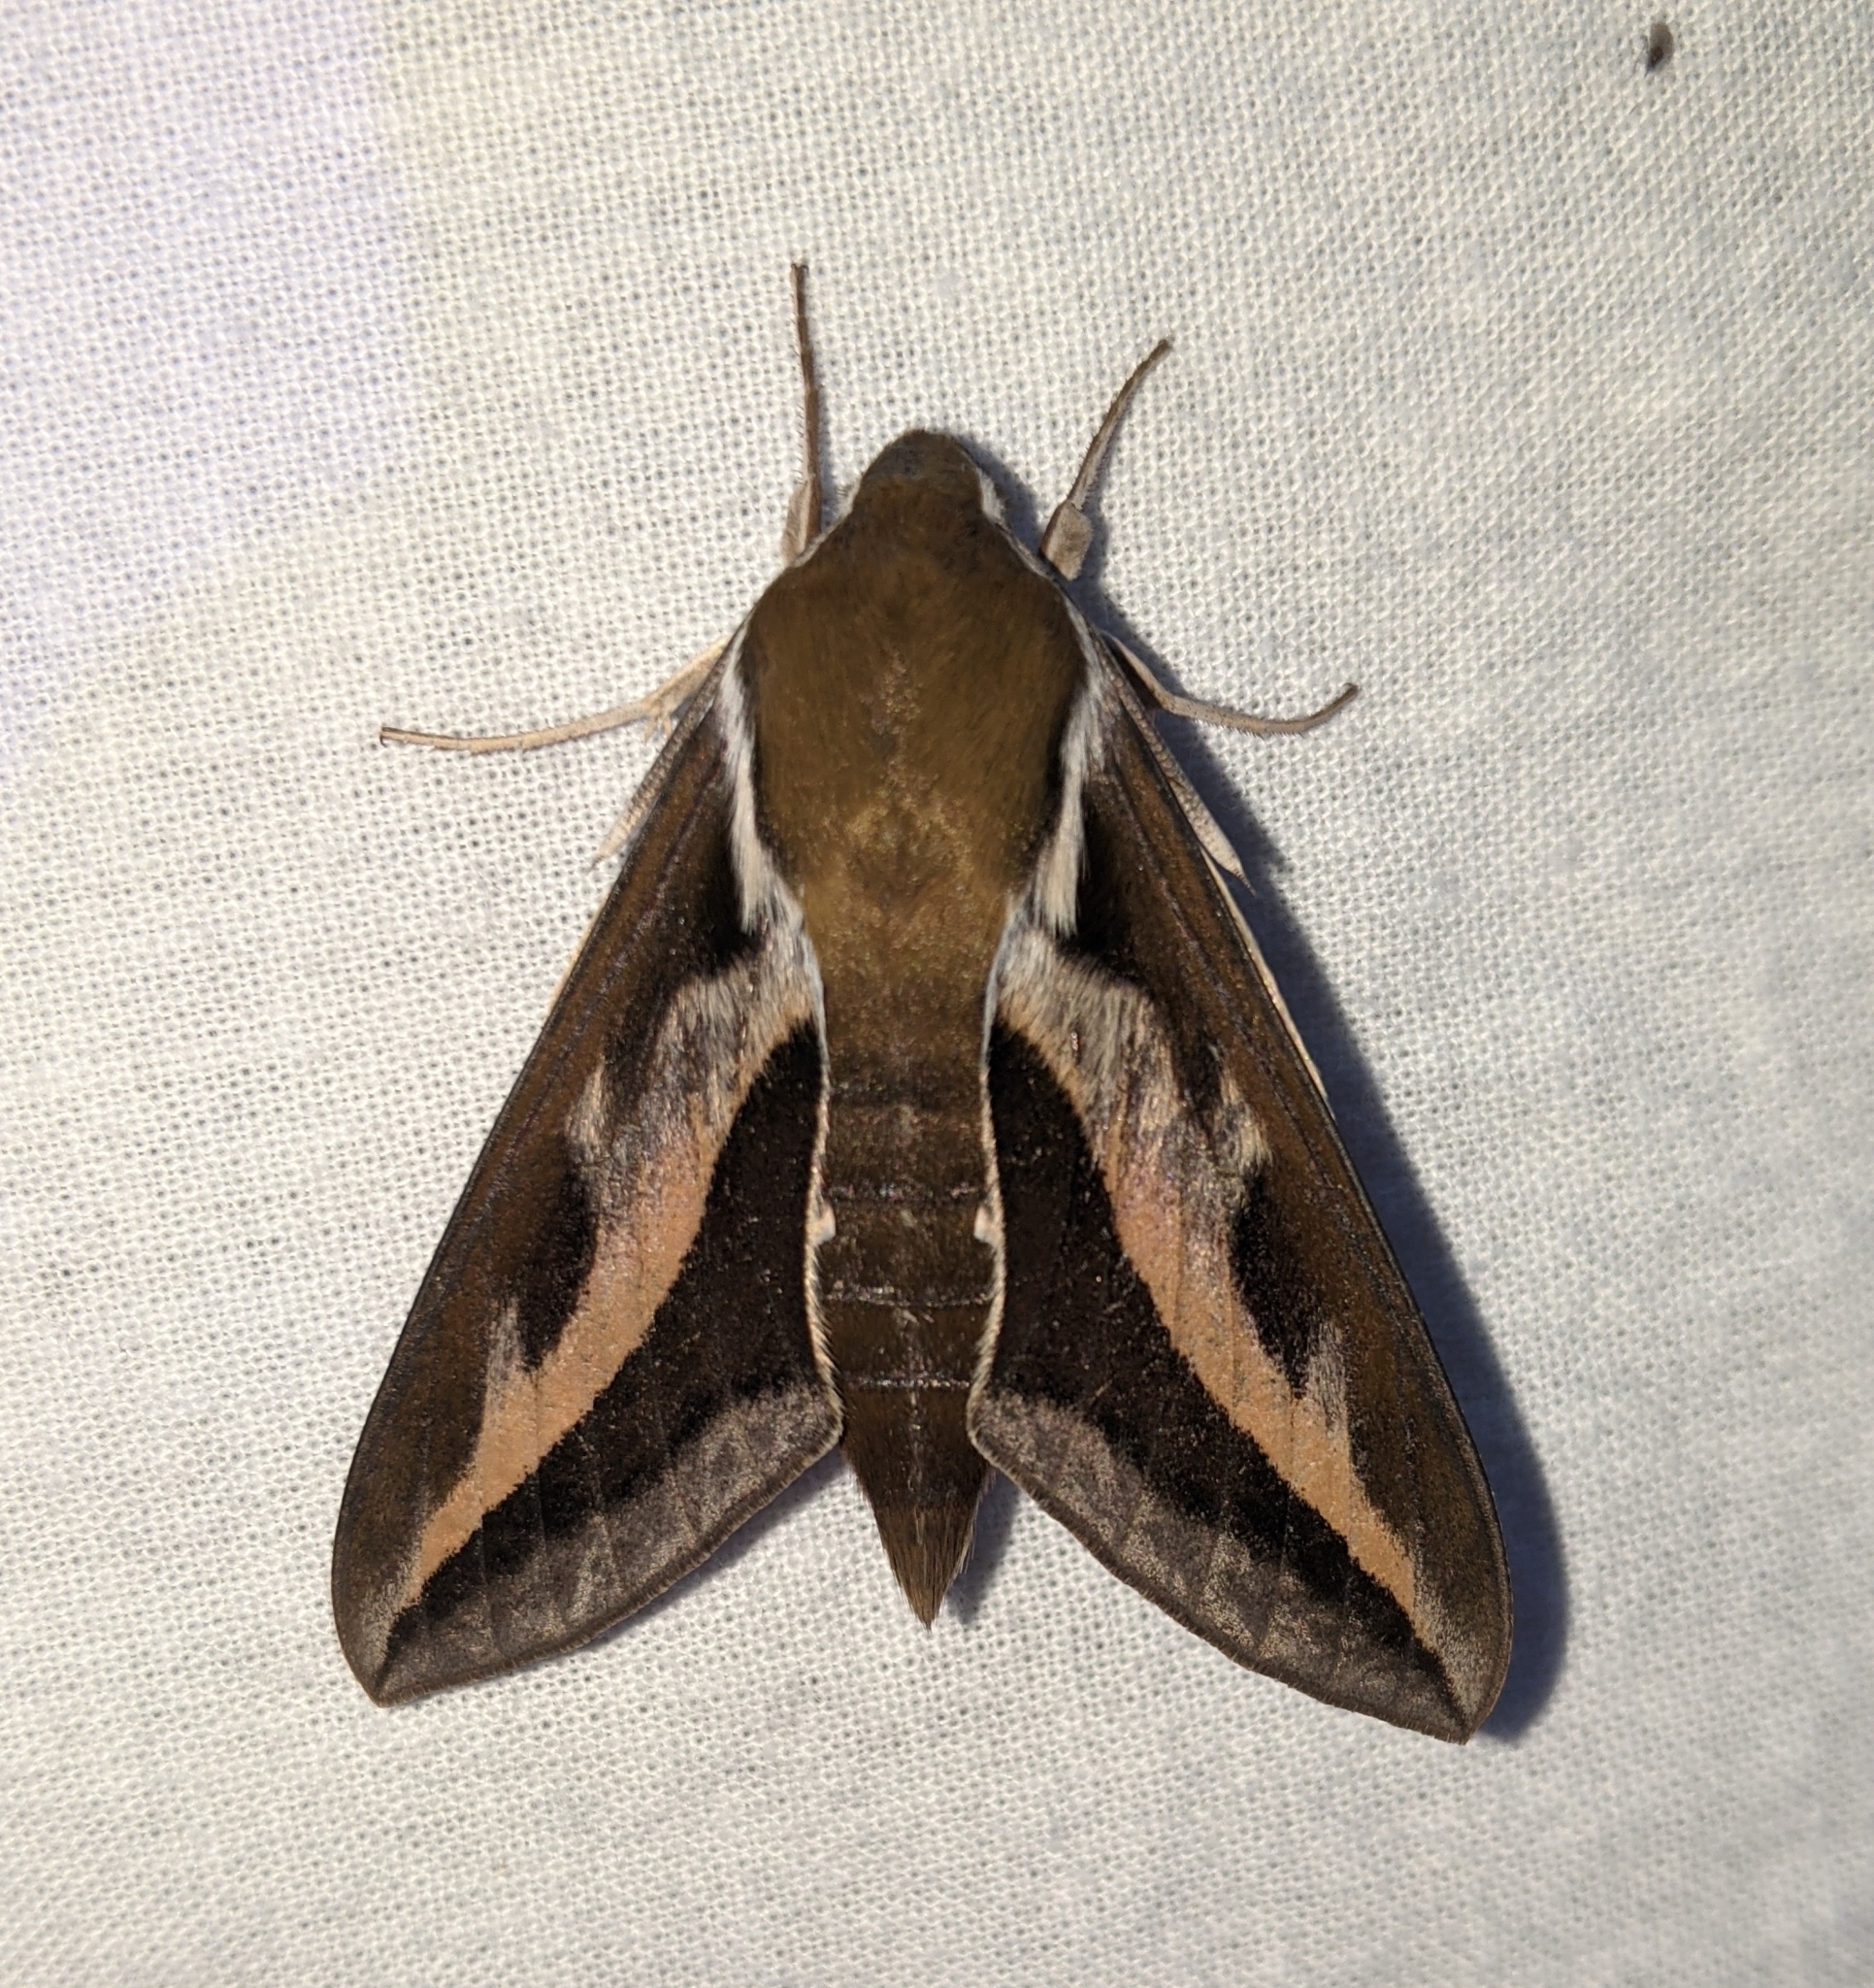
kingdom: Animalia
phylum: Arthropoda
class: Insecta
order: Lepidoptera
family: Sphingidae
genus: Hyles
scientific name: Hyles gallii
